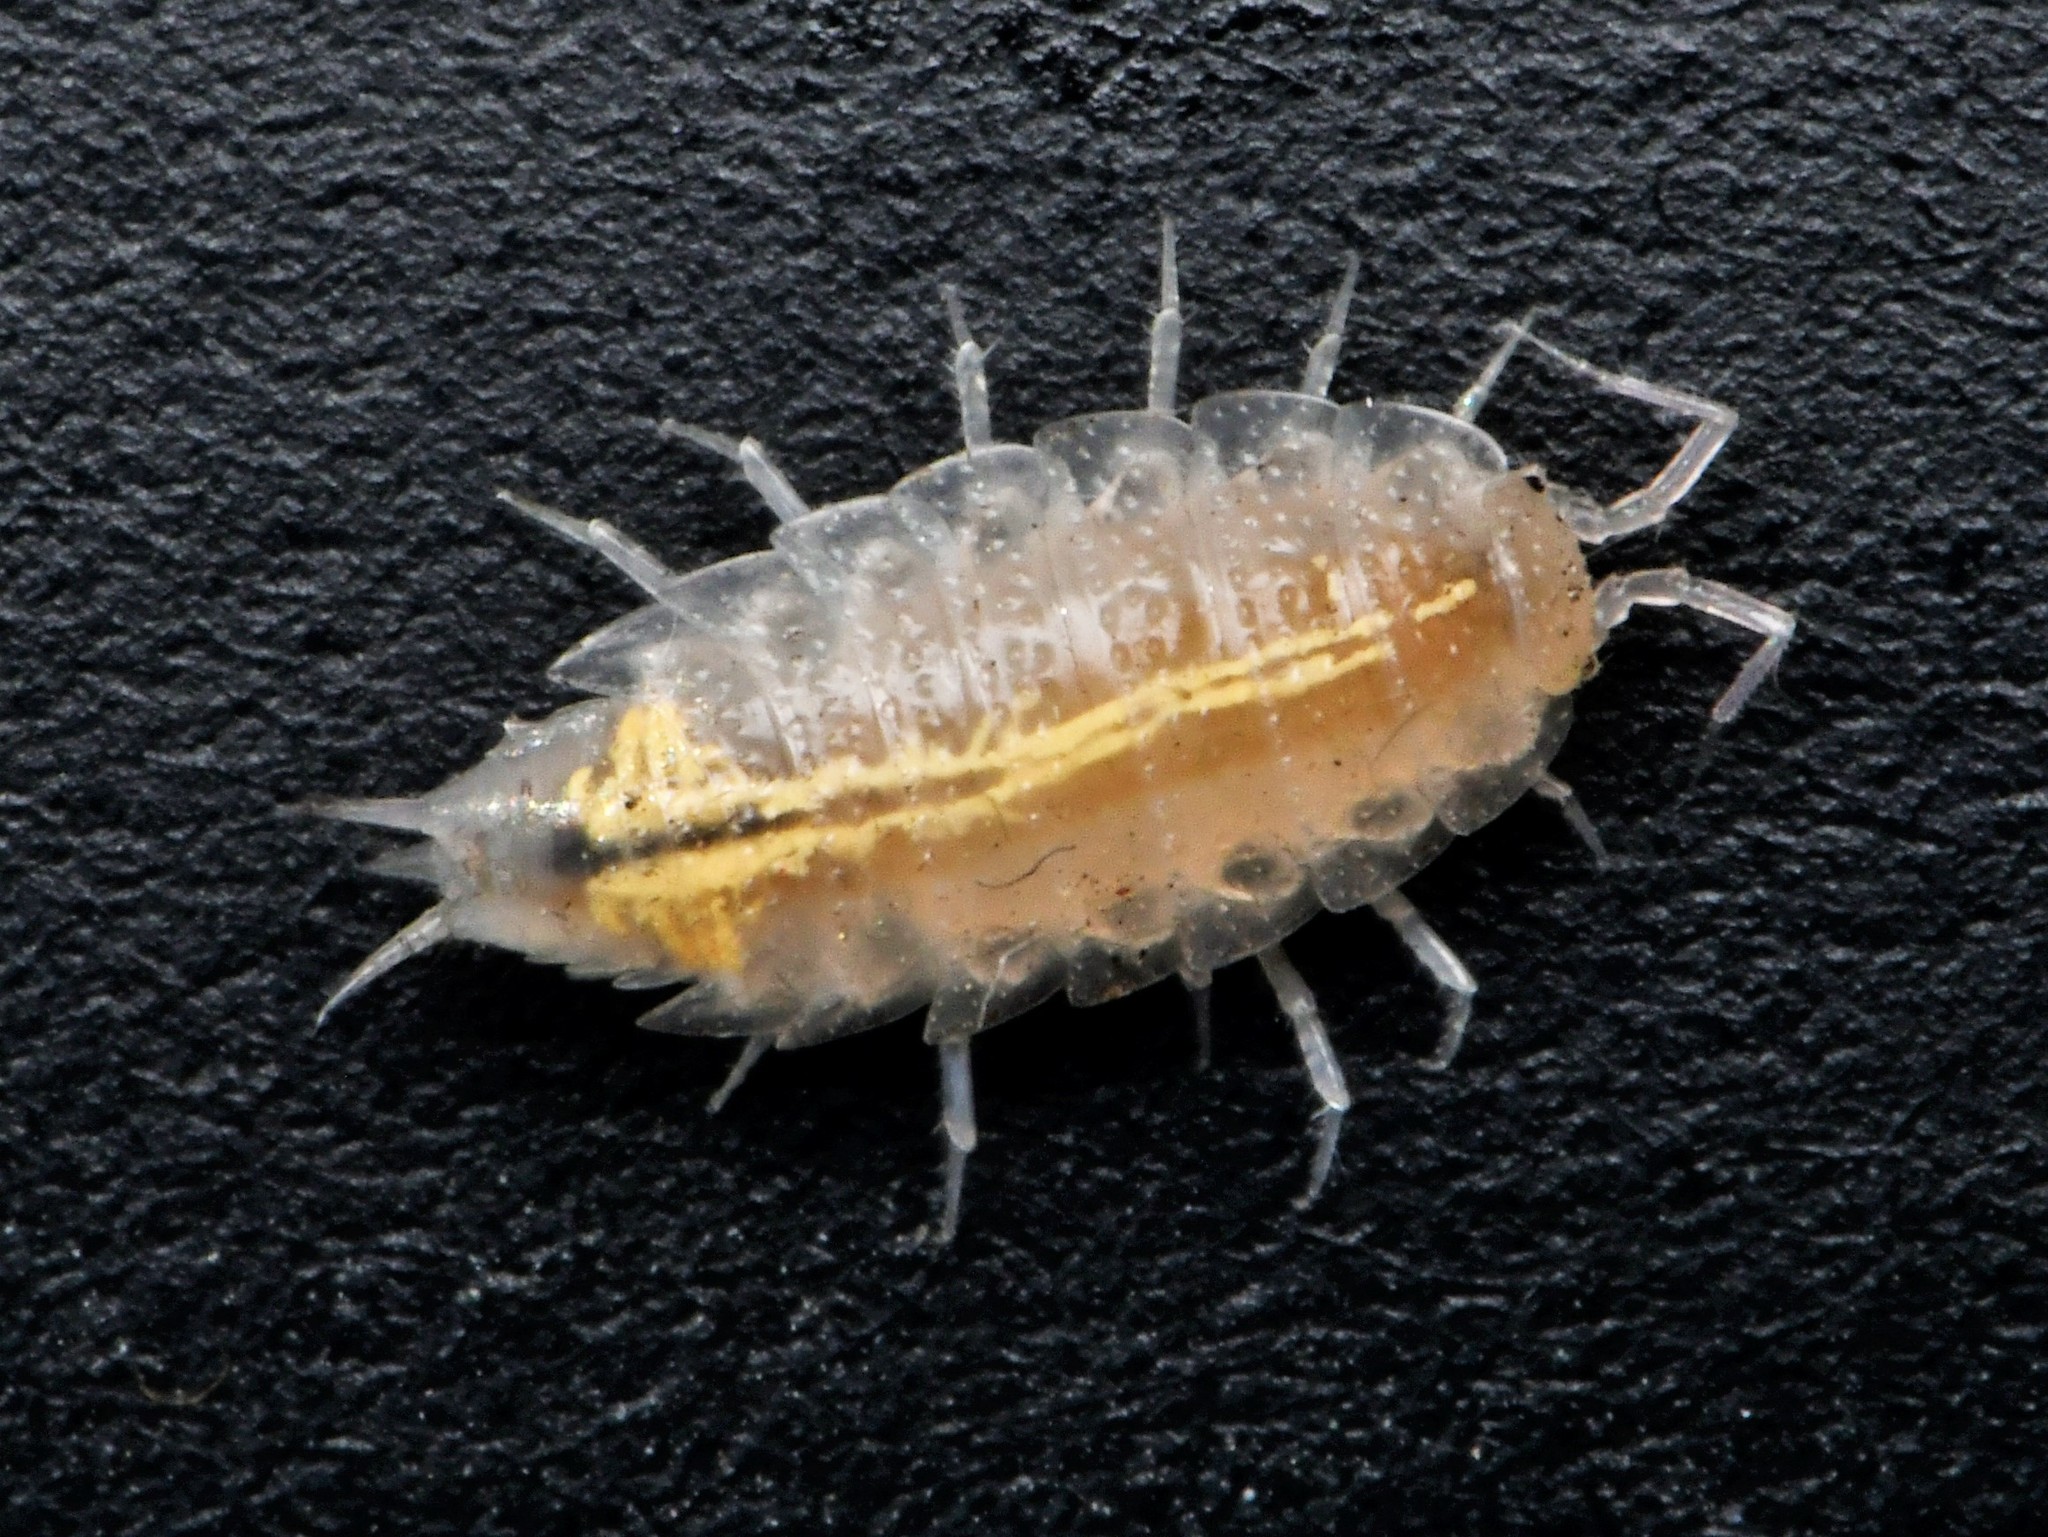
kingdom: Animalia
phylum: Arthropoda
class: Malacostraca
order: Isopoda
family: Trichoniscidae
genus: Androniscus
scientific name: Androniscus dentiger
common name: Rosy woodlouse
